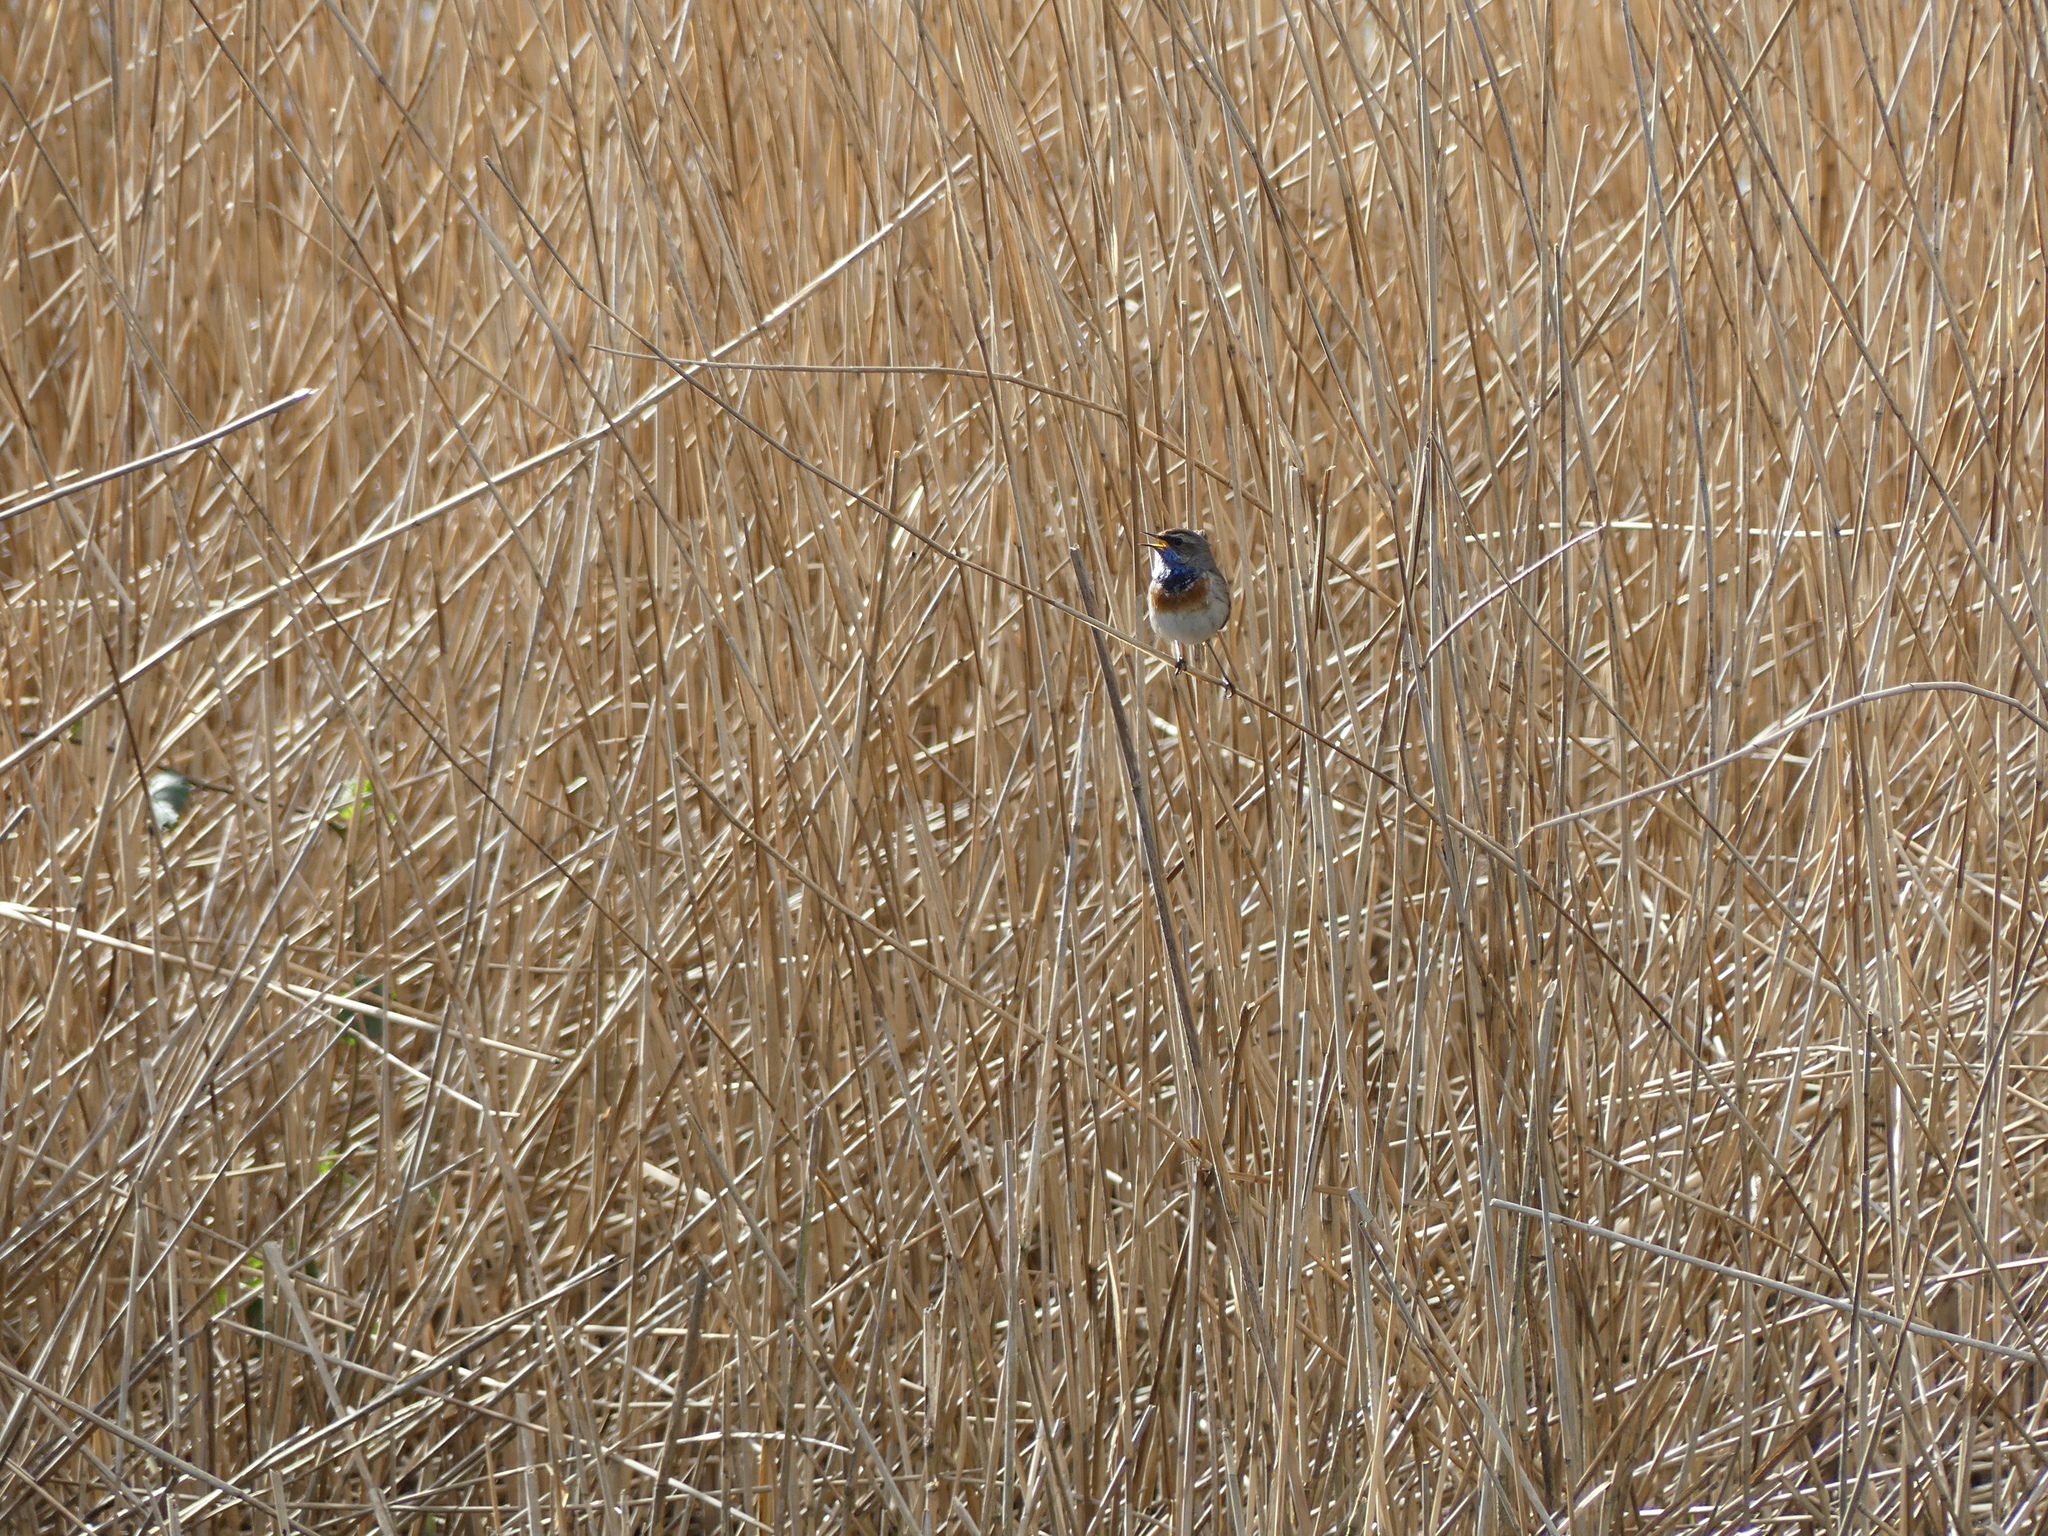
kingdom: Animalia
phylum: Chordata
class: Aves
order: Passeriformes
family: Muscicapidae
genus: Luscinia
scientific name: Luscinia svecica
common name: Bluethroat
